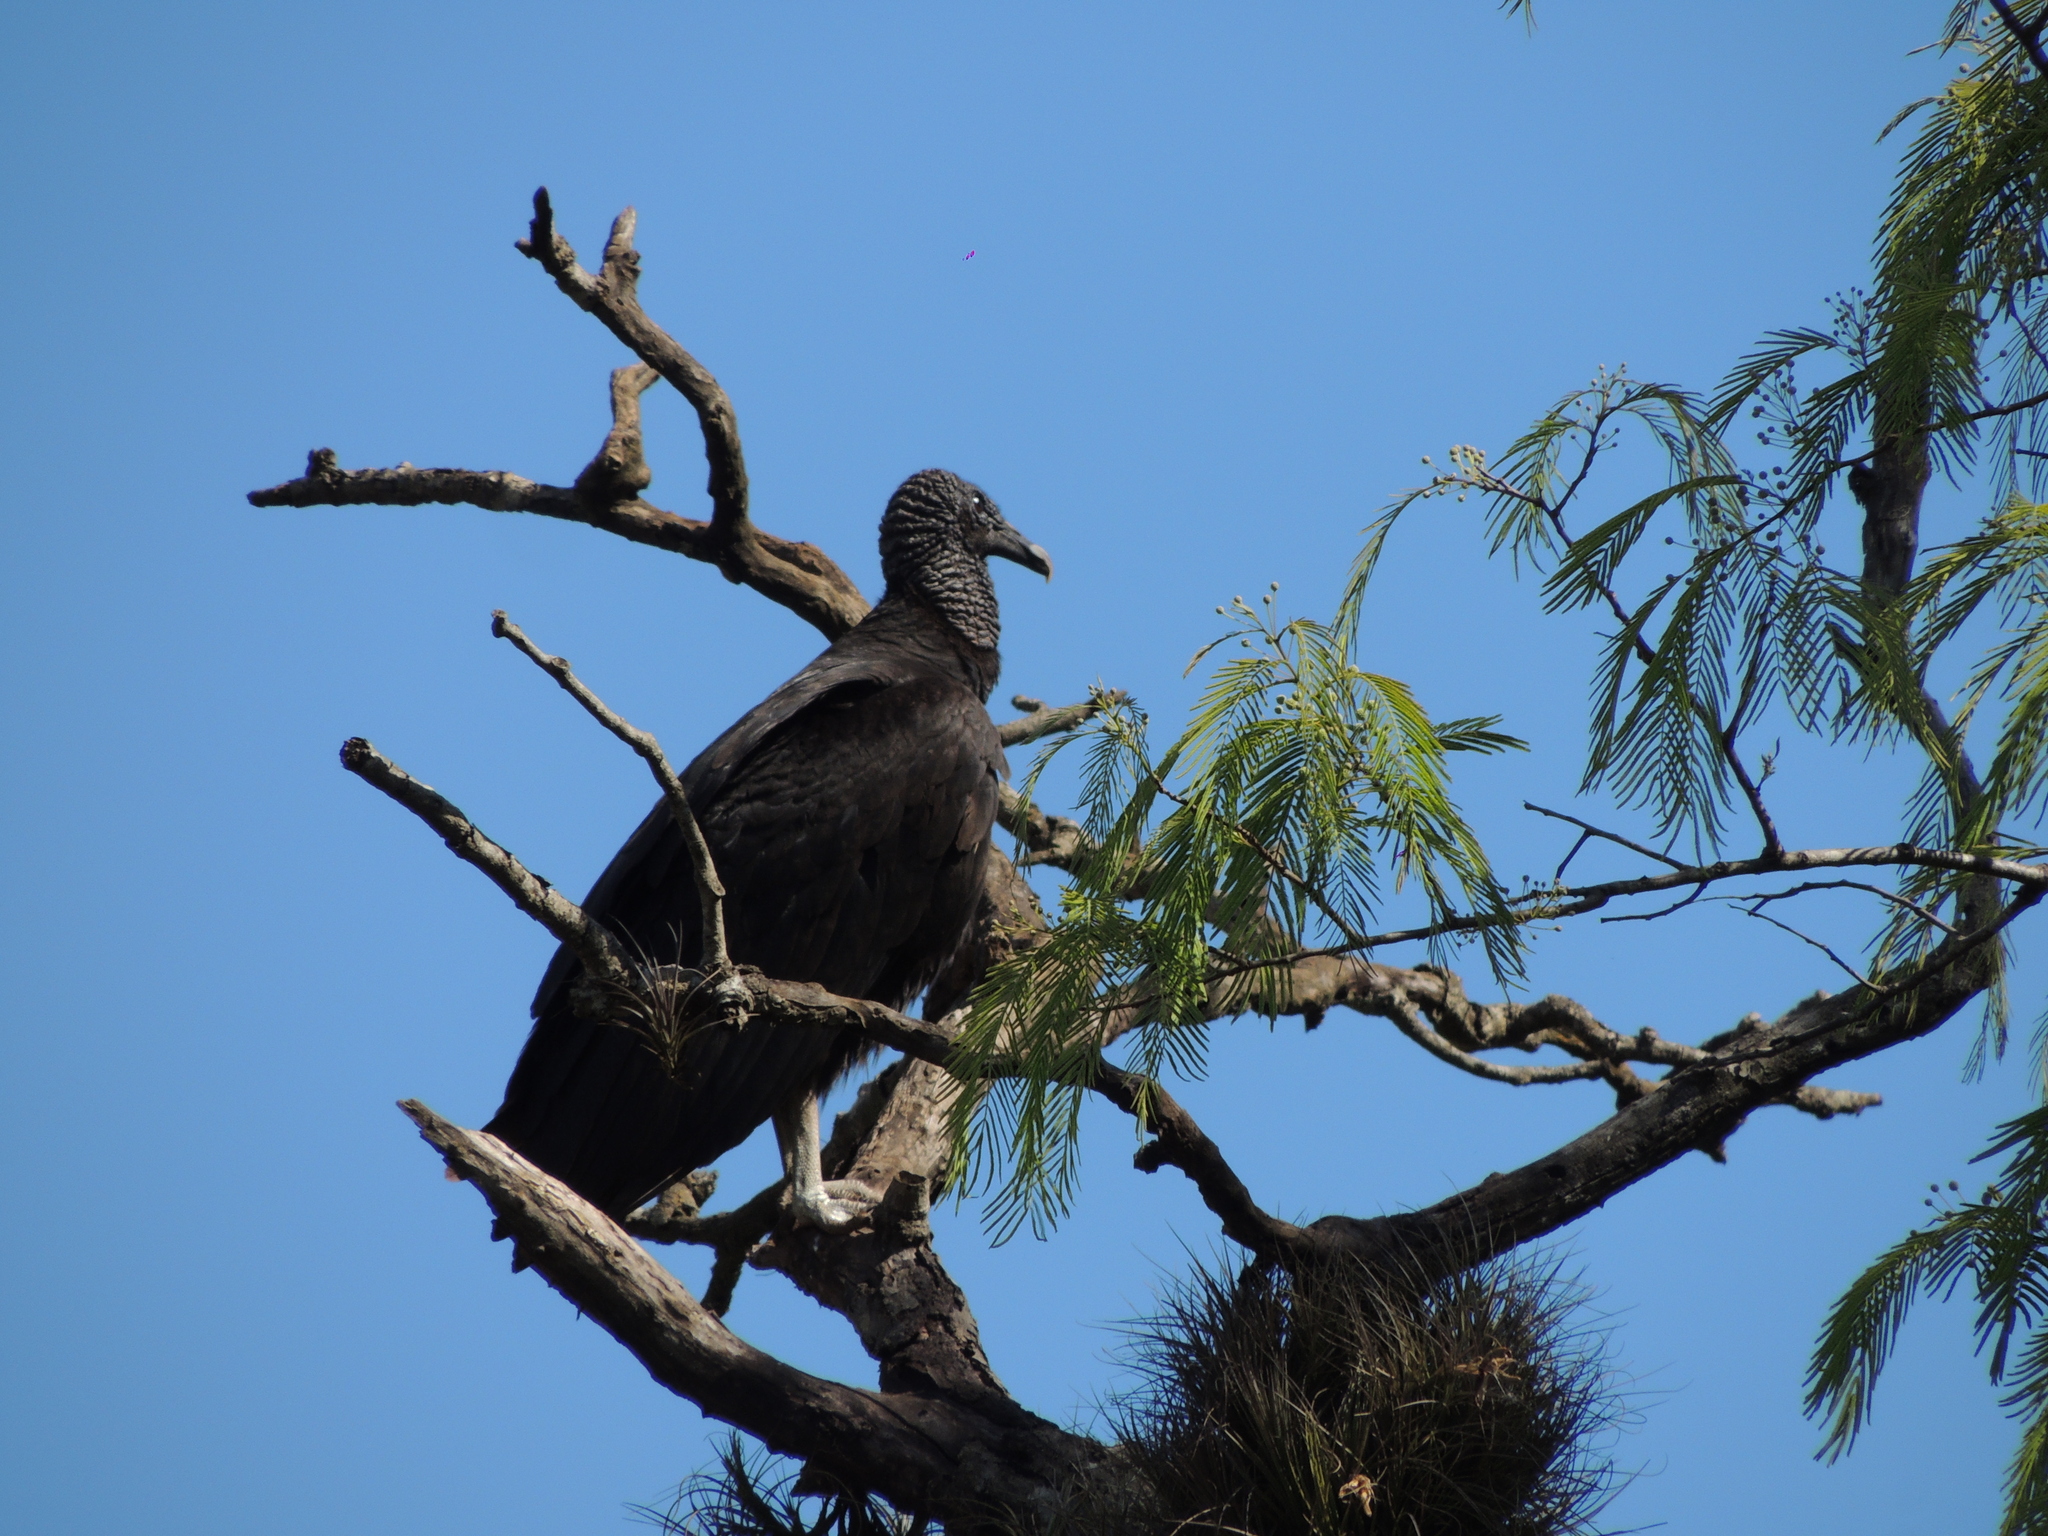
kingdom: Animalia
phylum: Chordata
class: Aves
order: Accipitriformes
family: Cathartidae
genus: Coragyps
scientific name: Coragyps atratus
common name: Black vulture
